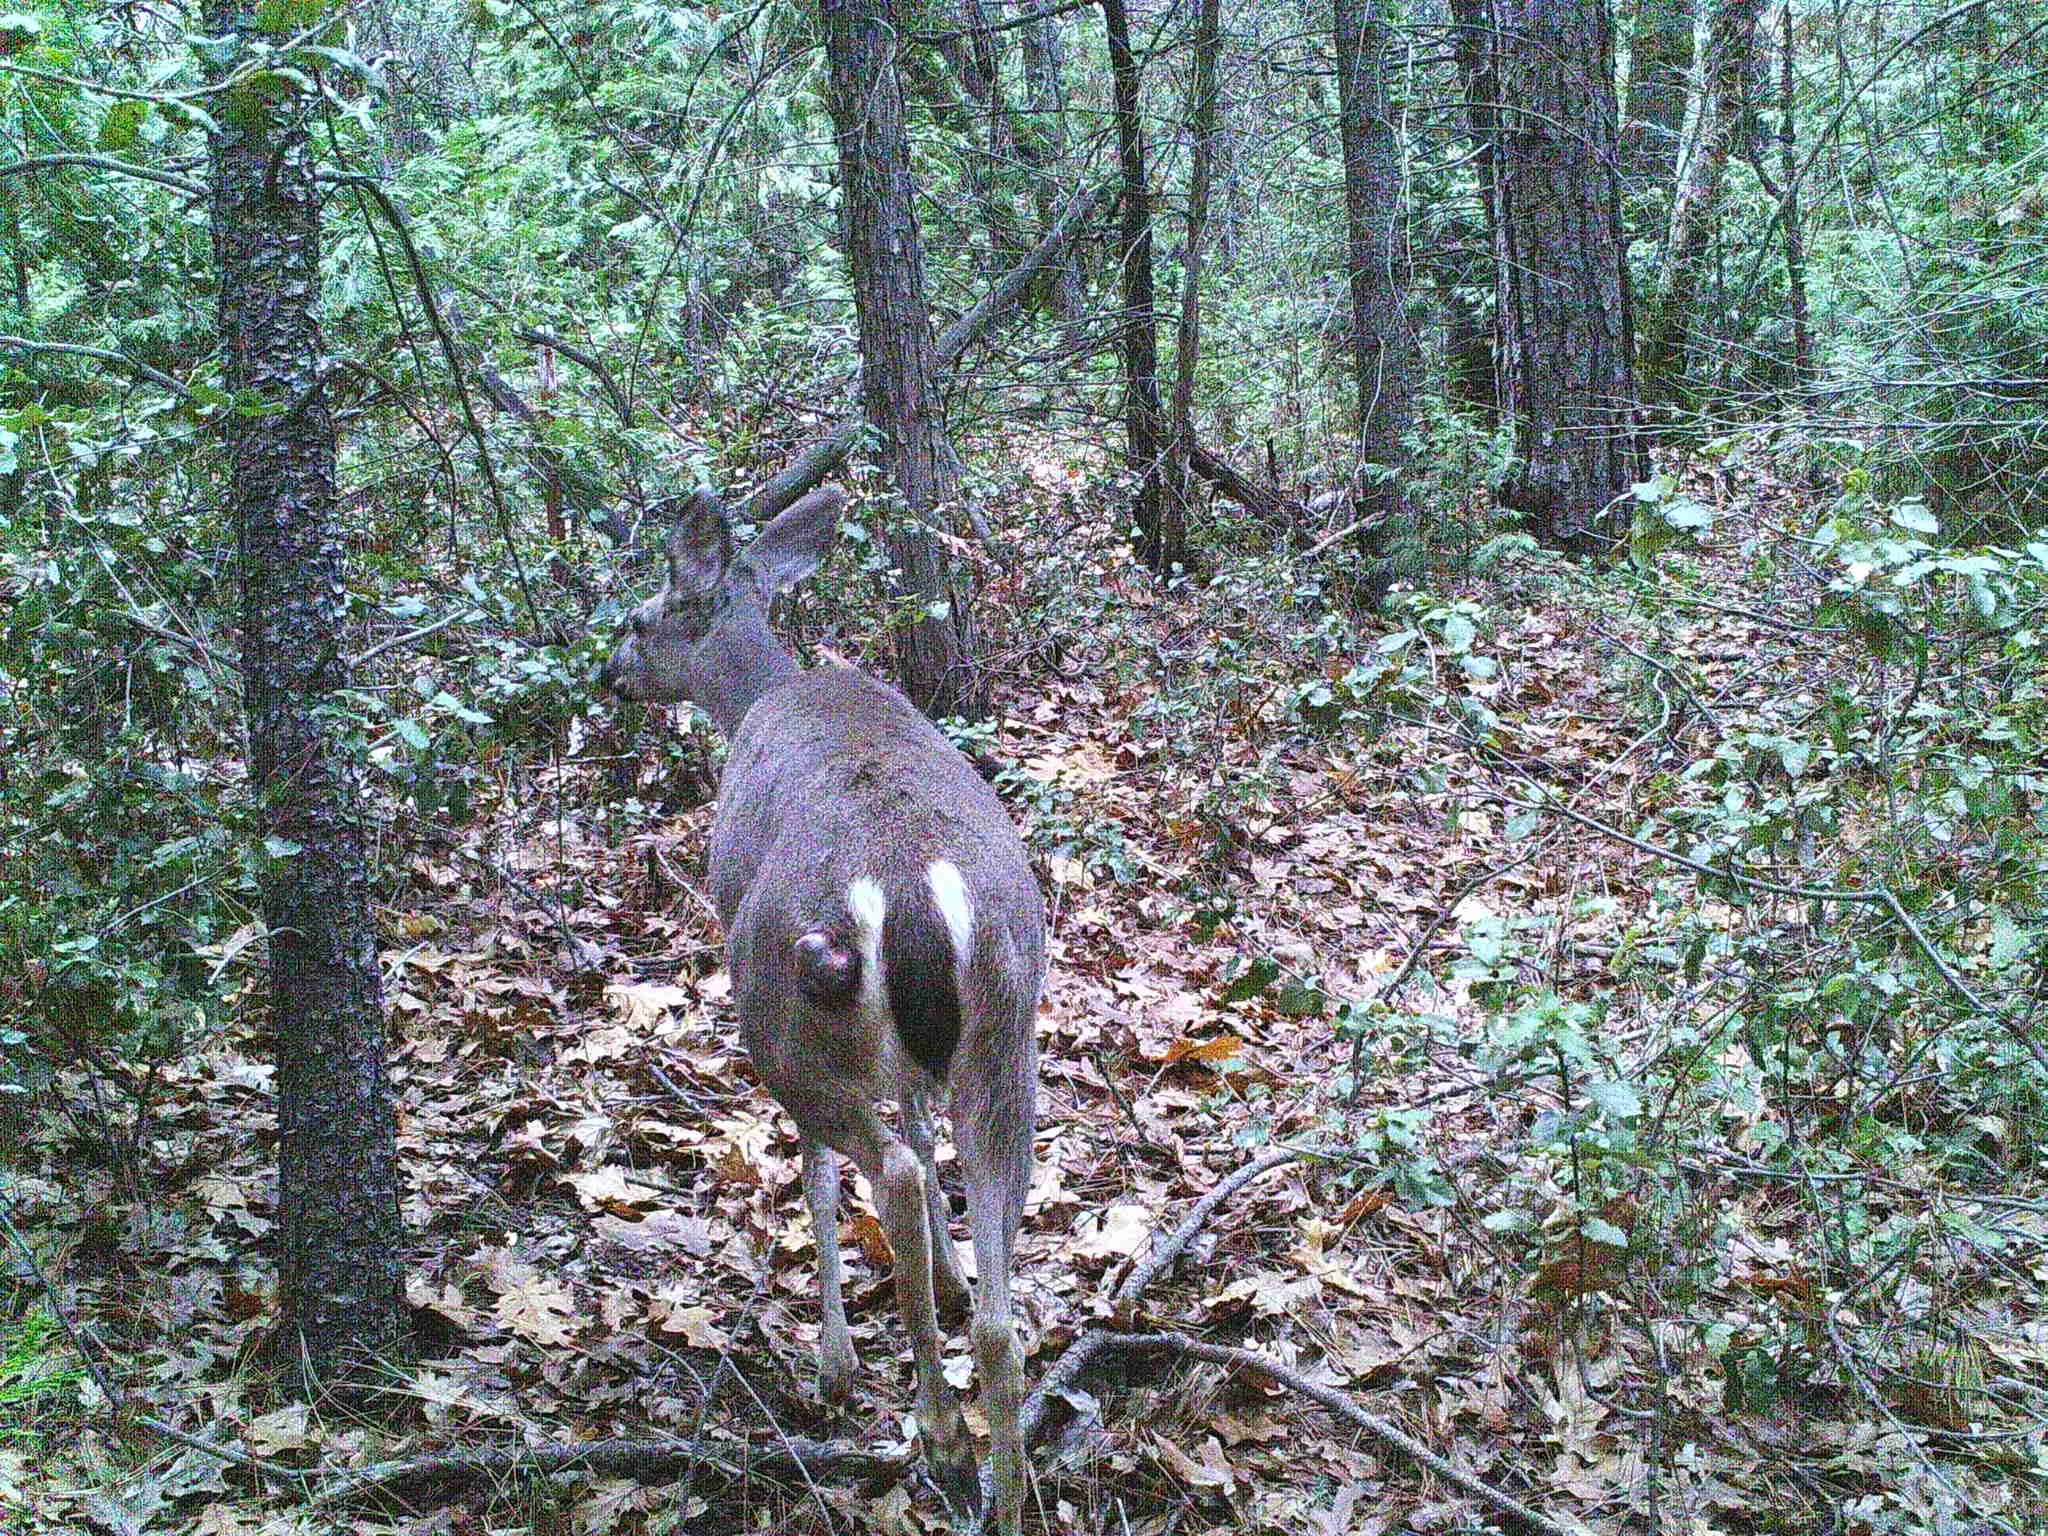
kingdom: Viruses
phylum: Cossaviricota
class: Papovaviricetes
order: Zurhausenvirales
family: Papillomaviridae
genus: Deltapapillomavirus
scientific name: Deltapapillomavirus
